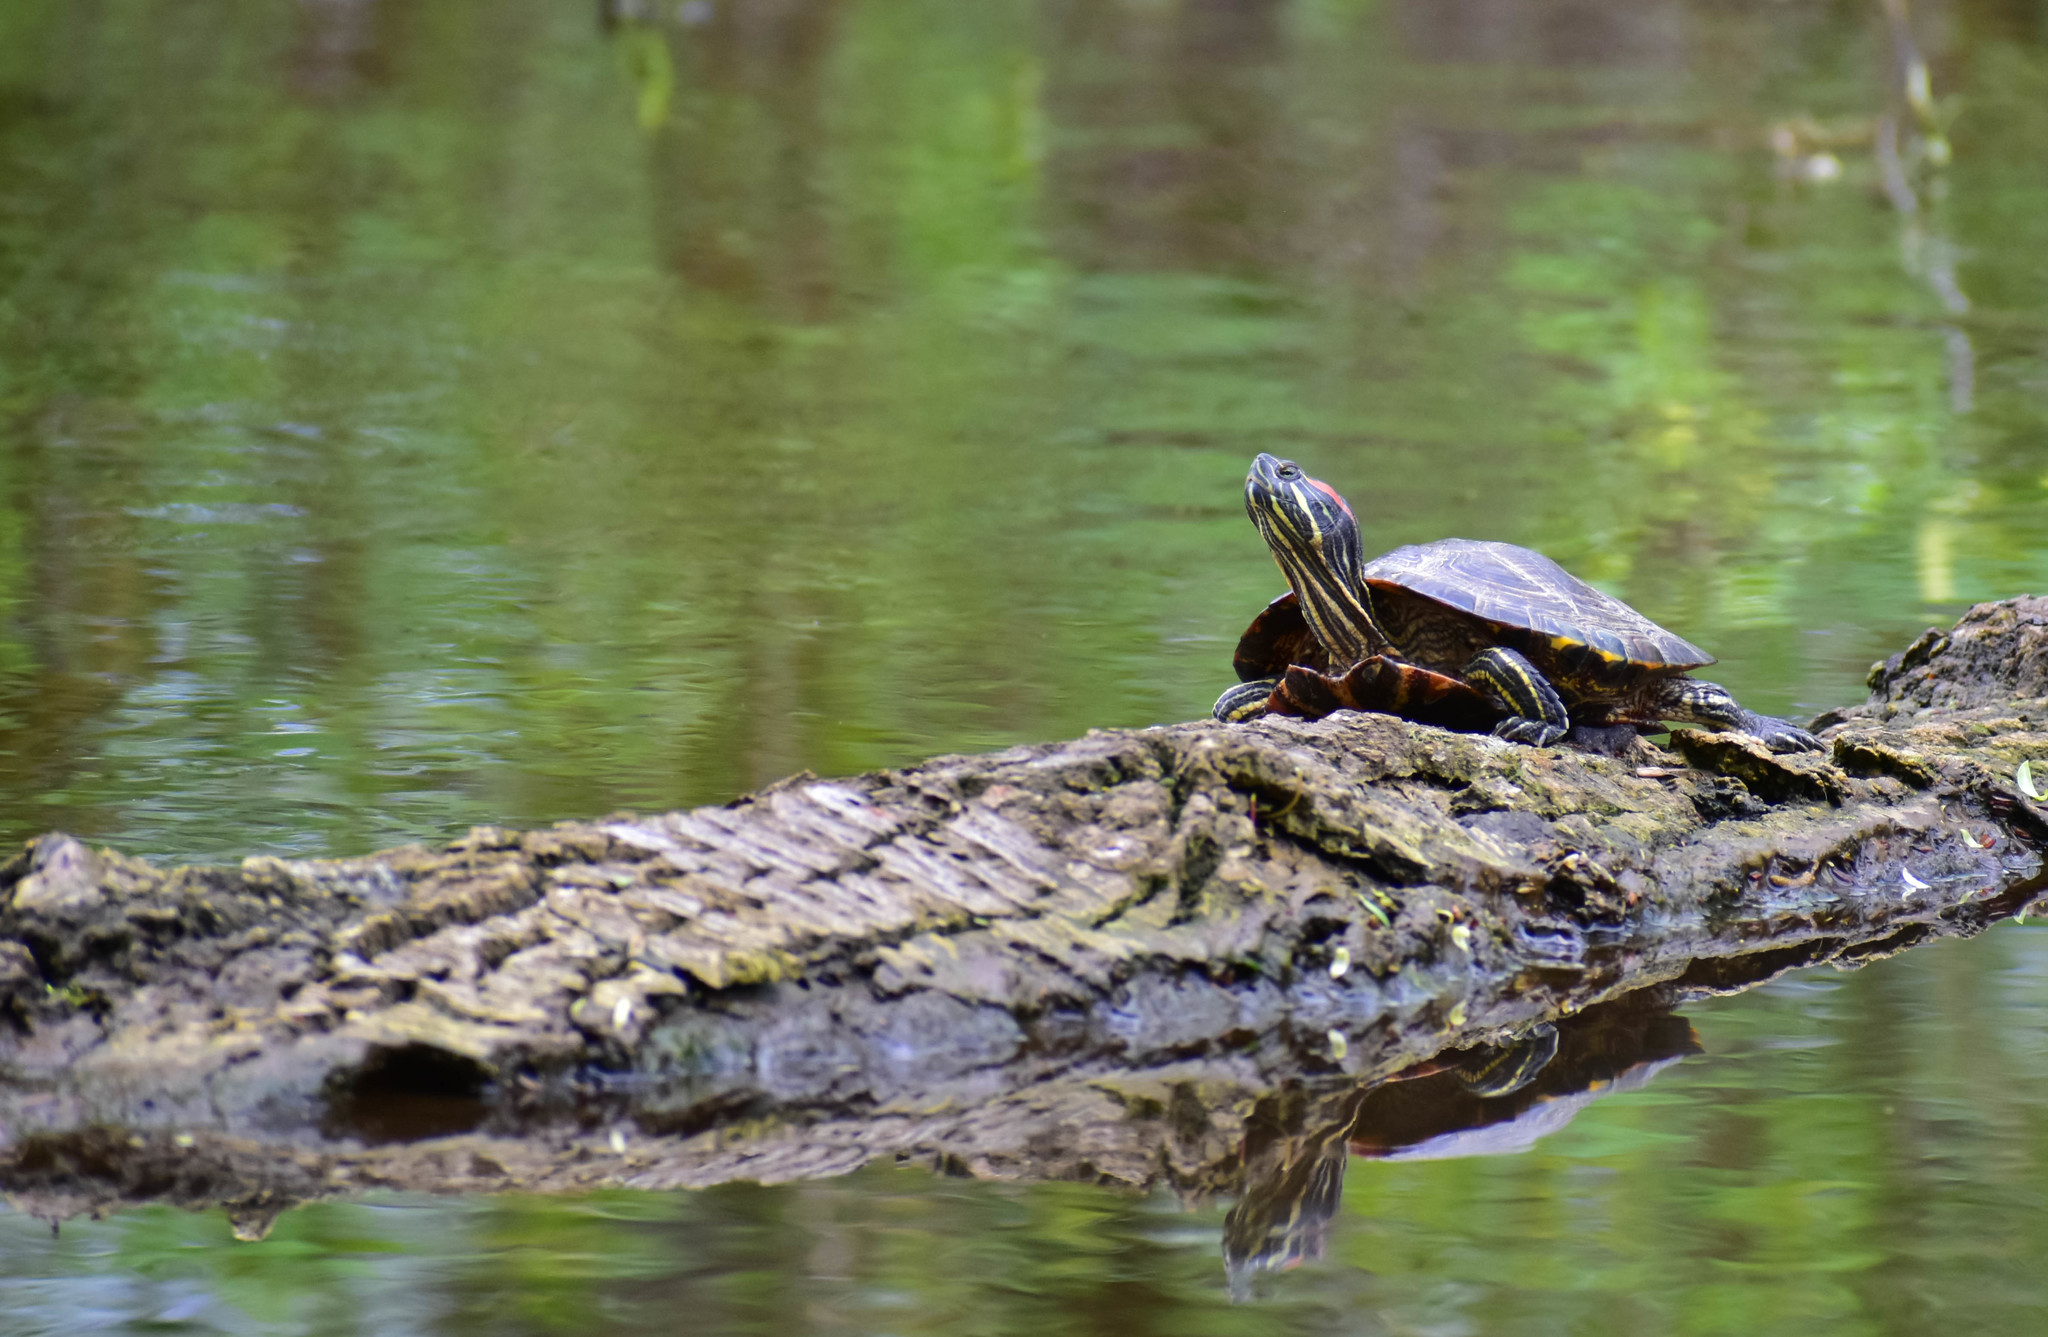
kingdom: Animalia
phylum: Chordata
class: Testudines
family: Emydidae
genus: Trachemys
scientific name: Trachemys scripta
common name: Slider
